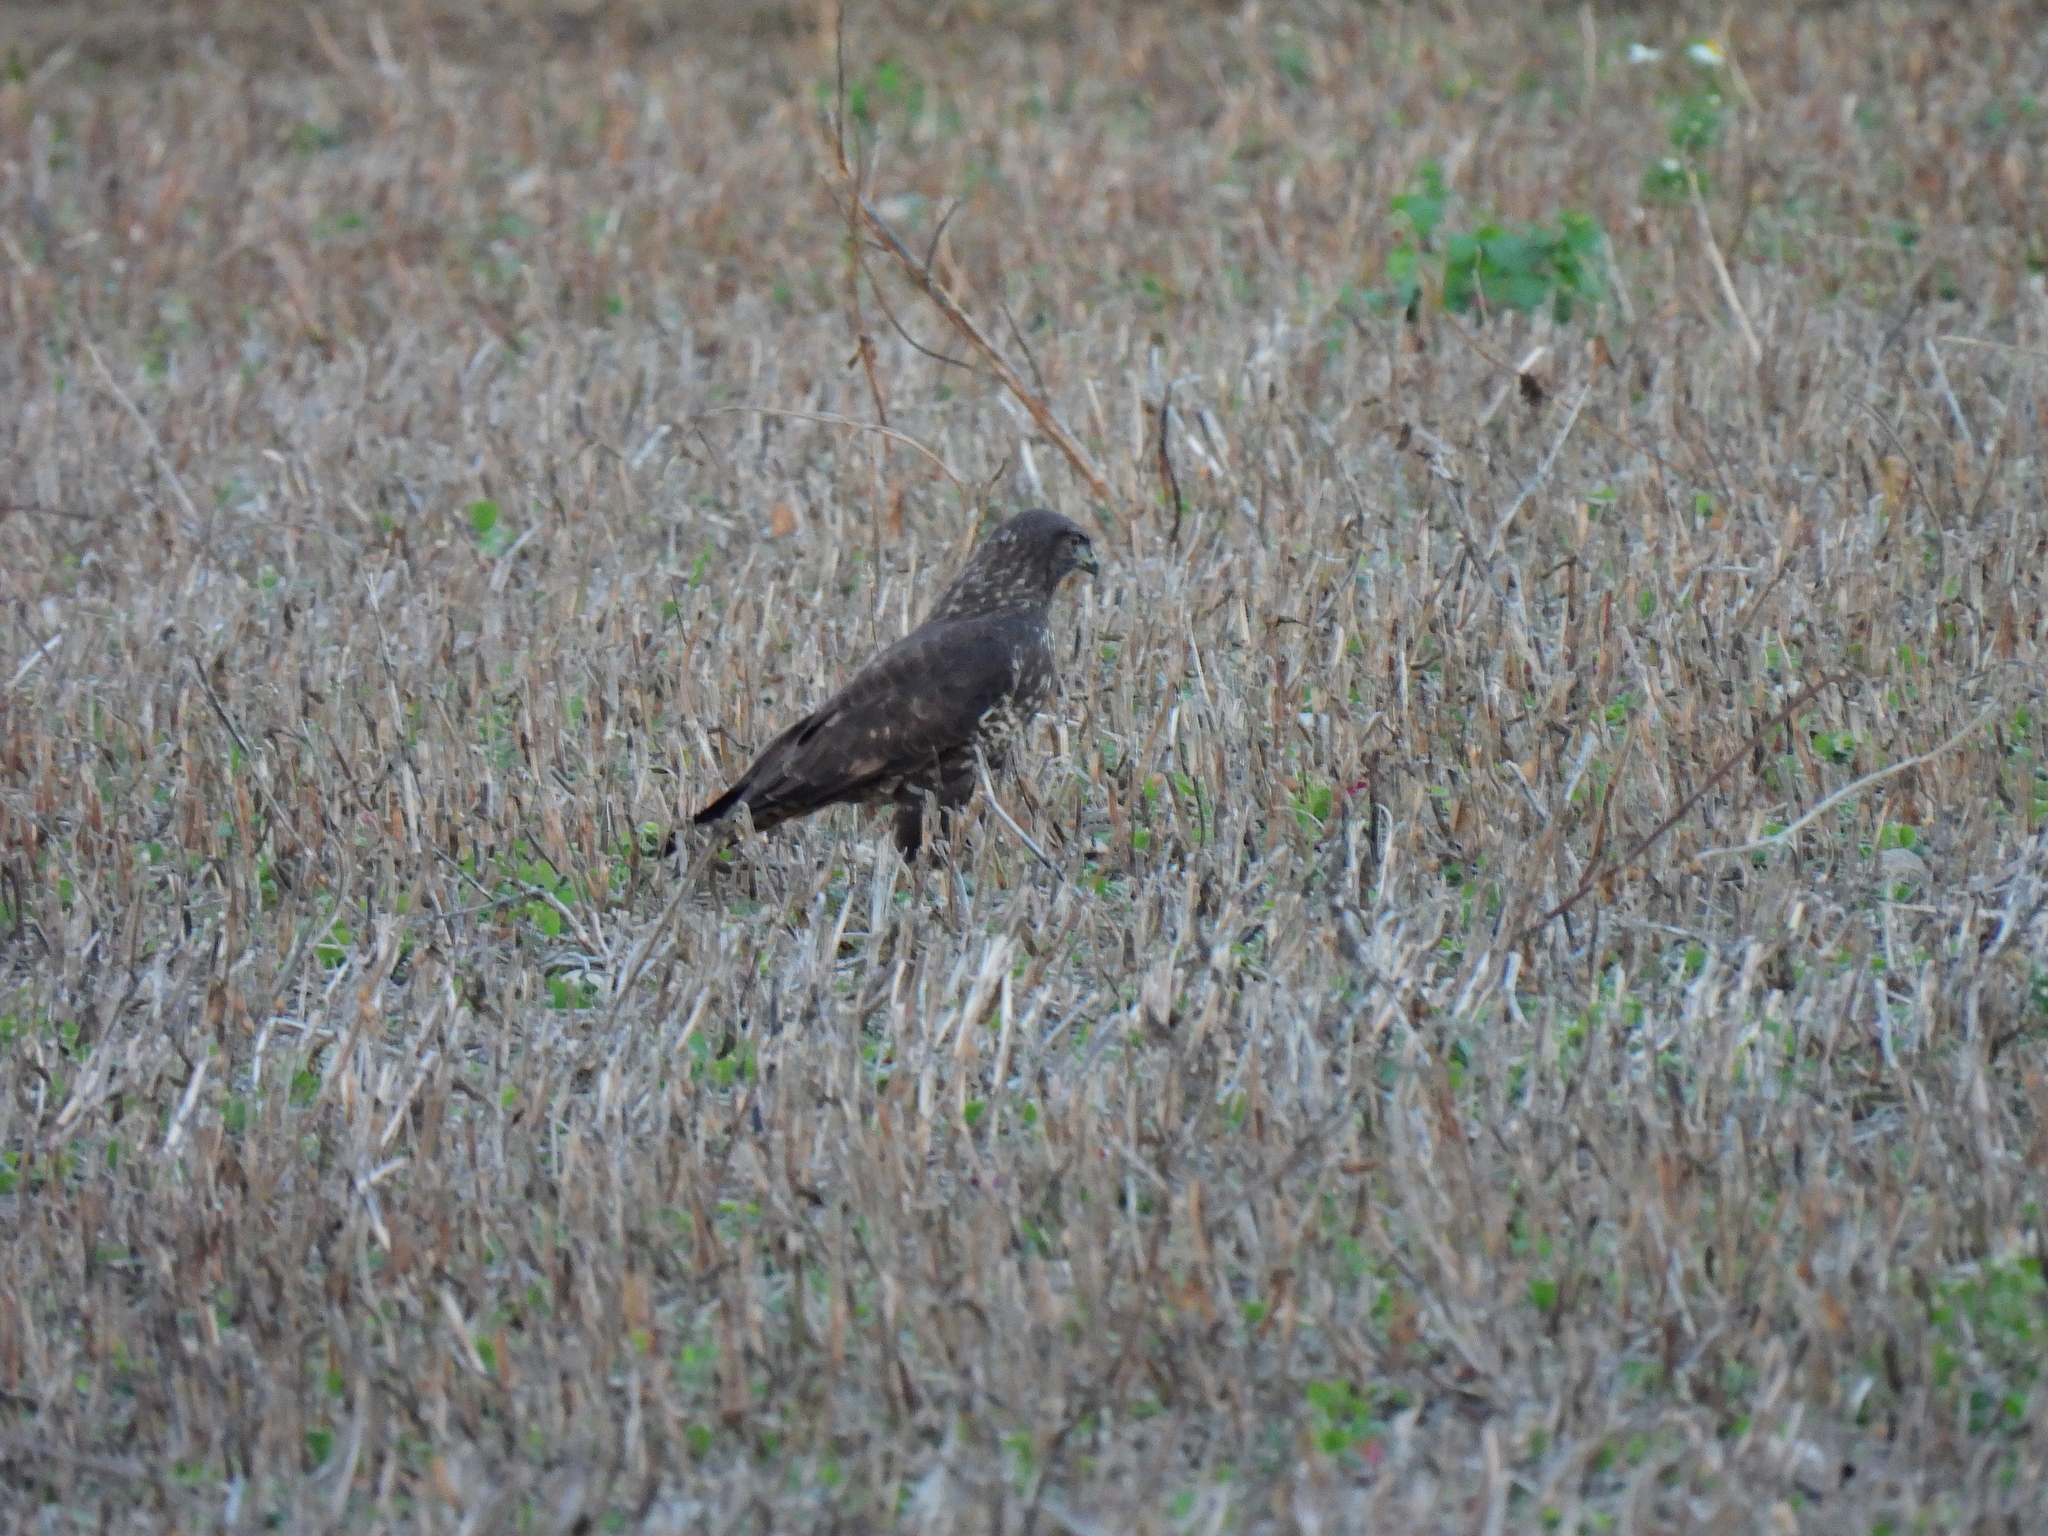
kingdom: Animalia
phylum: Chordata
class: Aves
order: Accipitriformes
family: Accipitridae
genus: Buteo
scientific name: Buteo buteo
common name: Common buzzard
